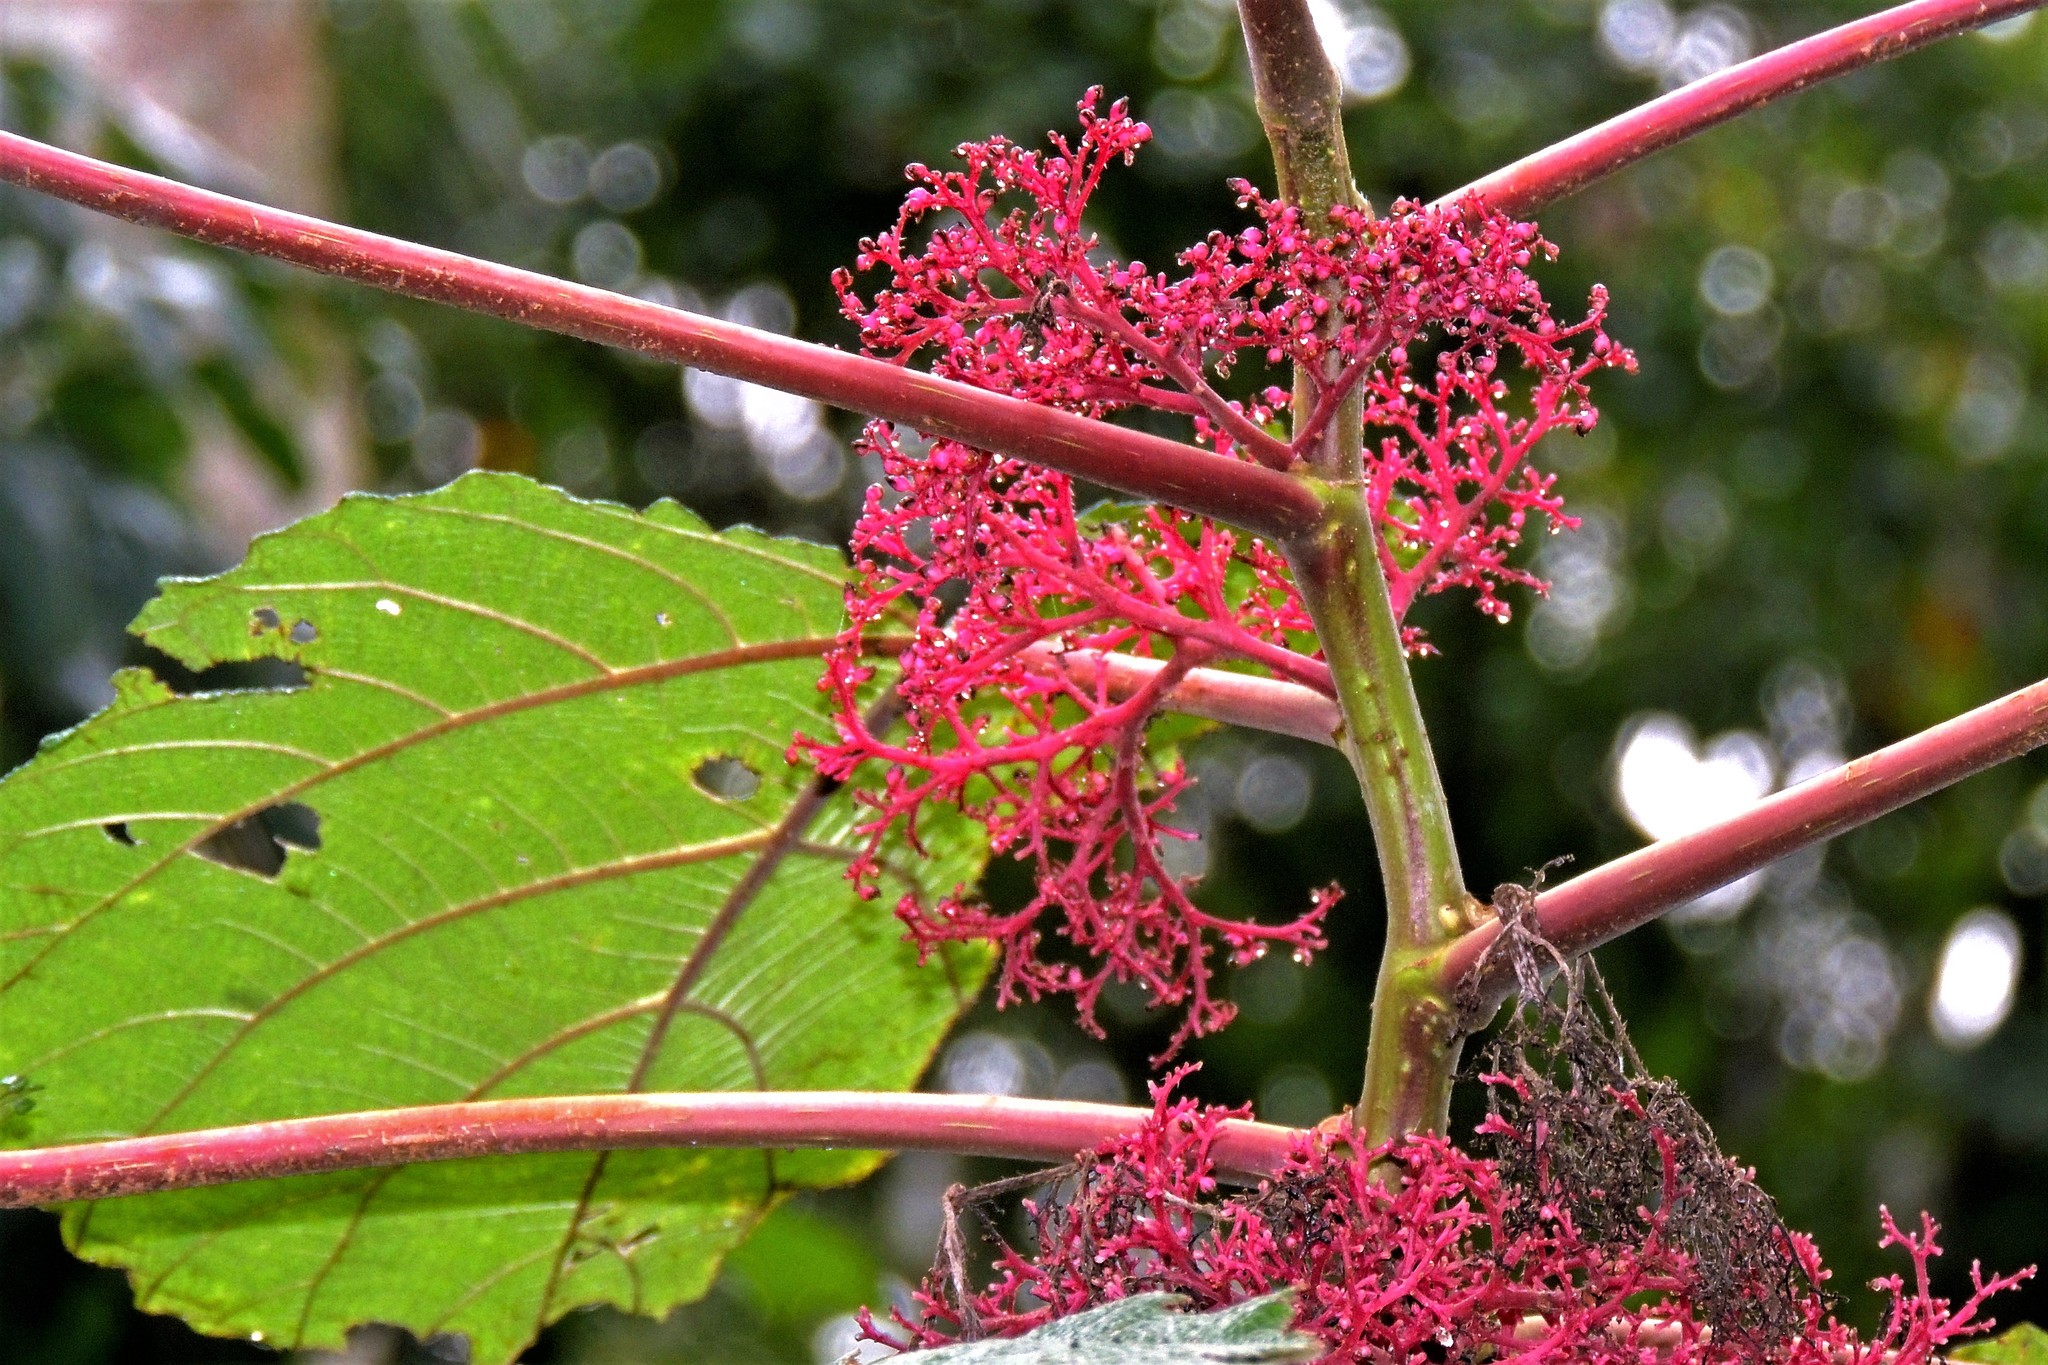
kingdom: Plantae
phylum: Tracheophyta
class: Magnoliopsida
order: Rosales
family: Urticaceae
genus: Urera
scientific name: Urera baccifera
